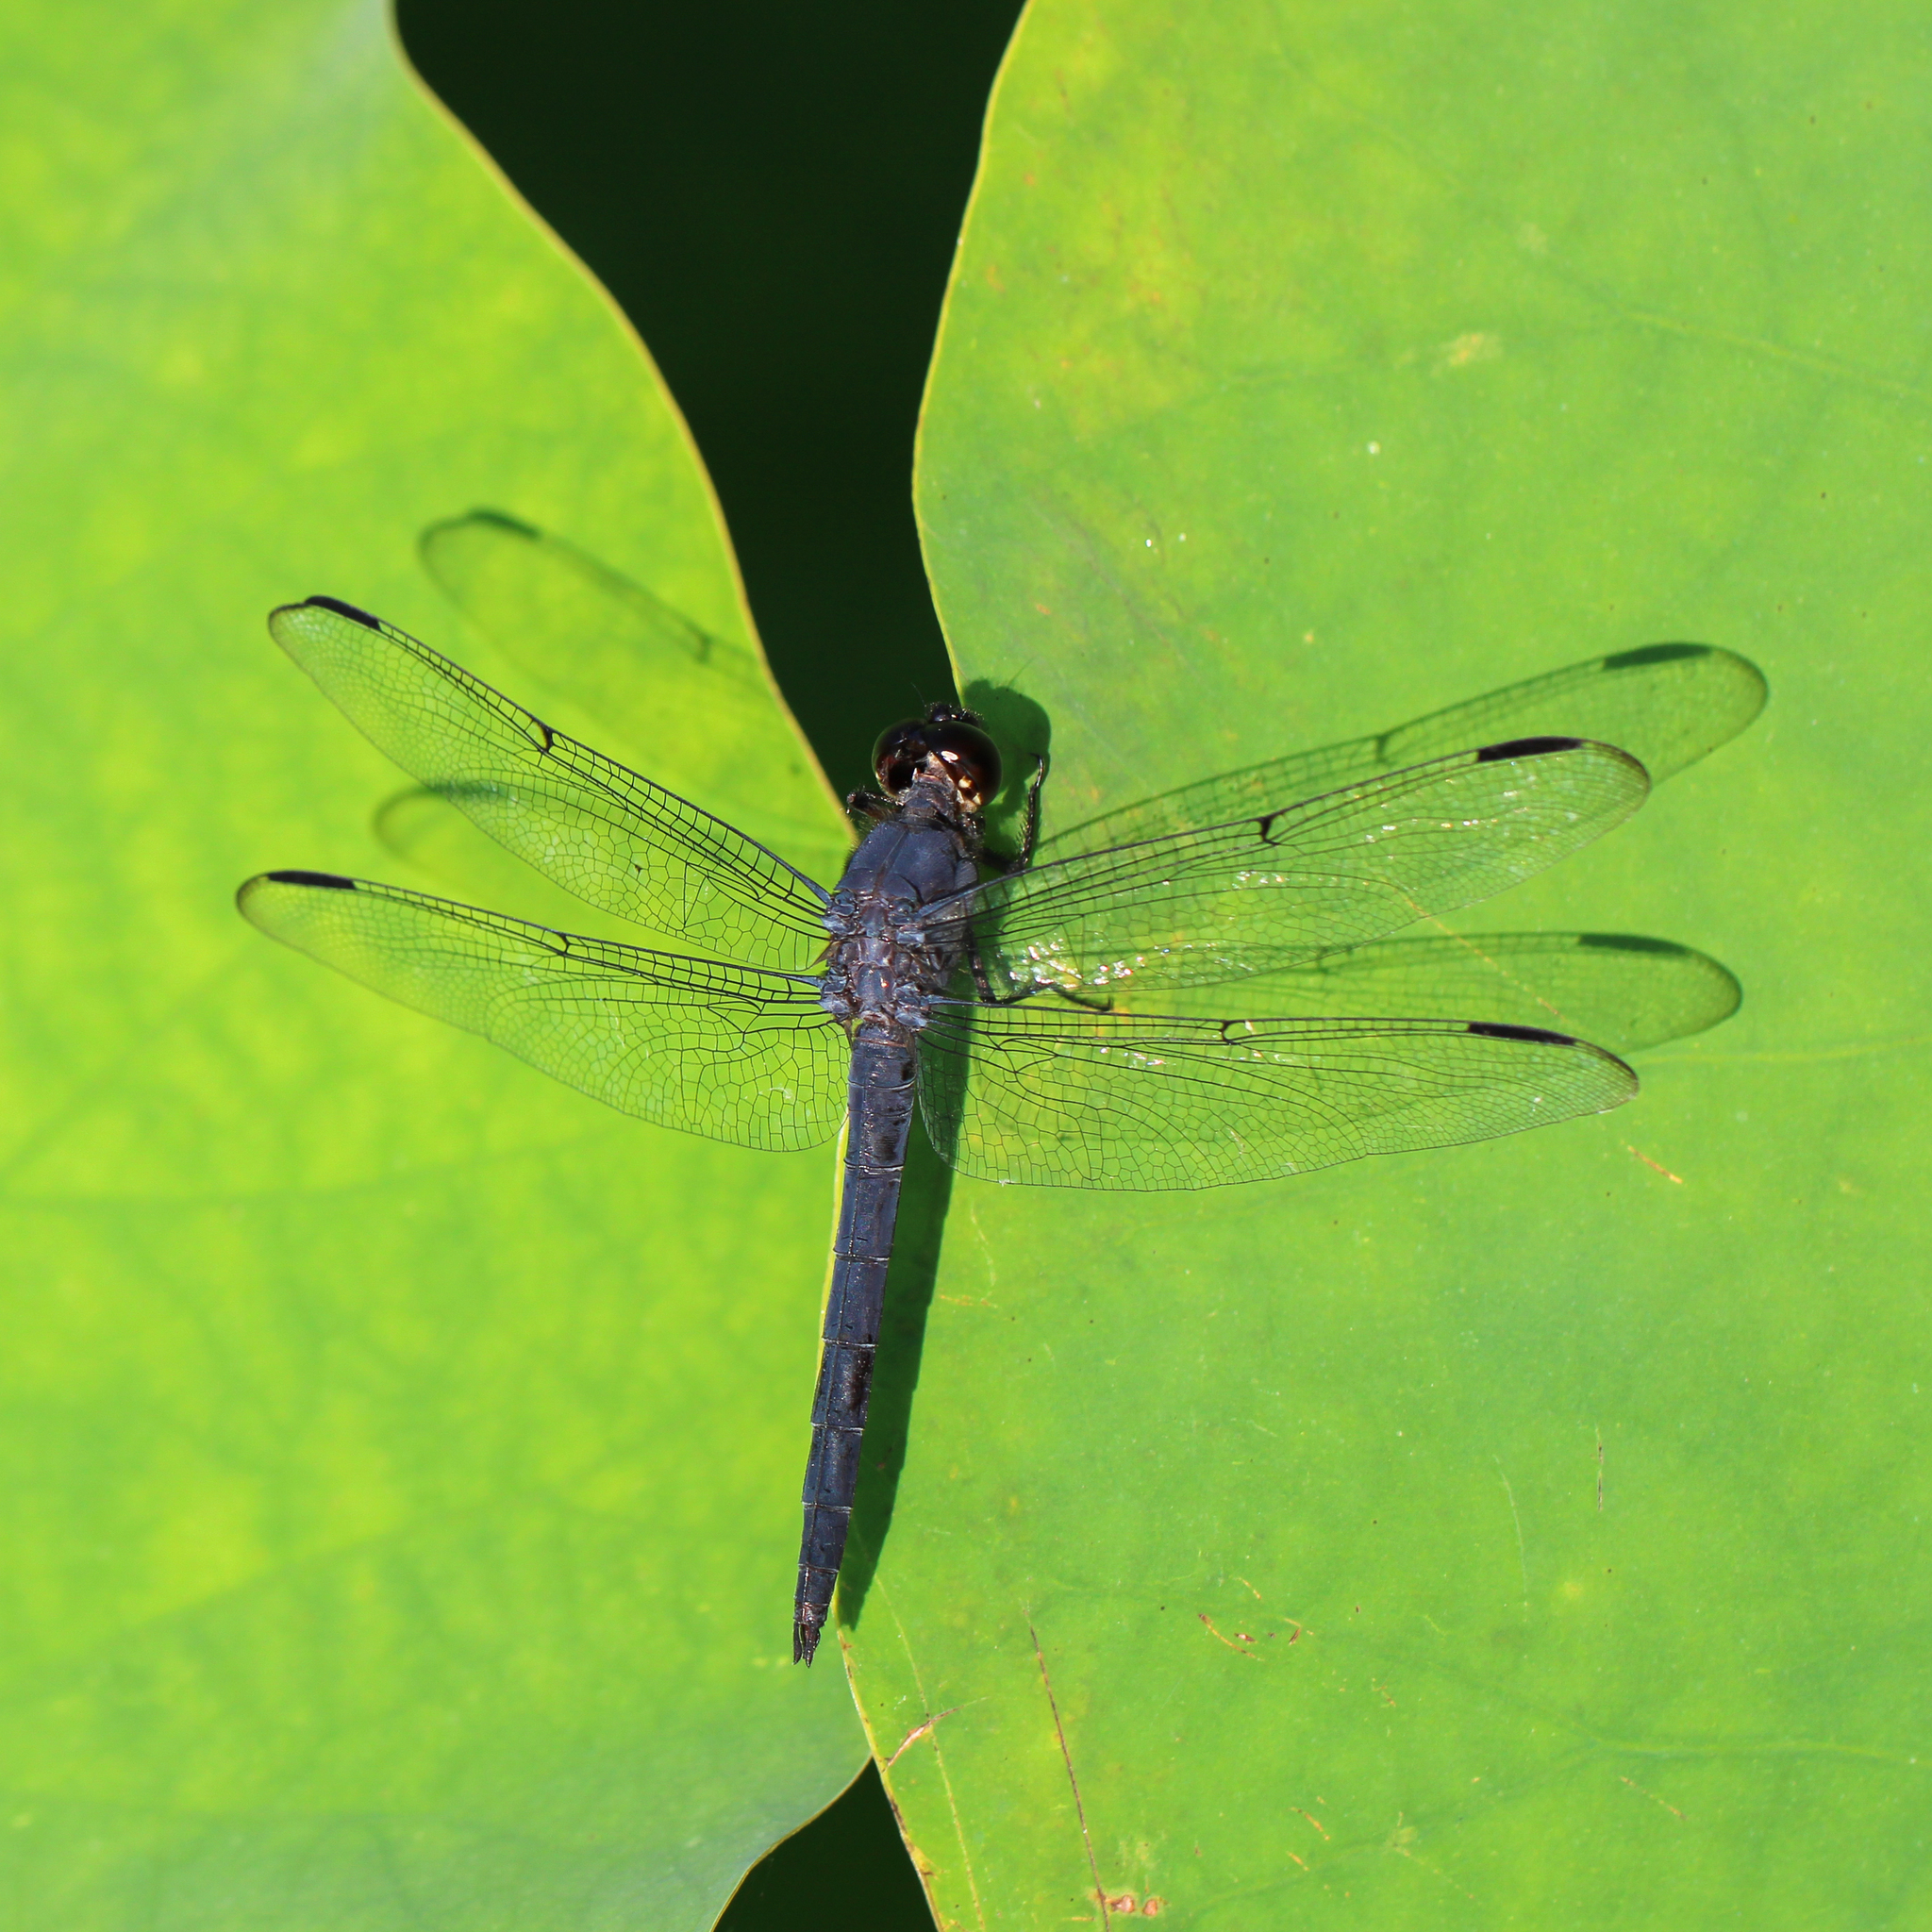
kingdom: Animalia
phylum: Arthropoda
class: Insecta
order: Odonata
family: Libellulidae
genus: Libellula
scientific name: Libellula incesta
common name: Slaty skimmer
